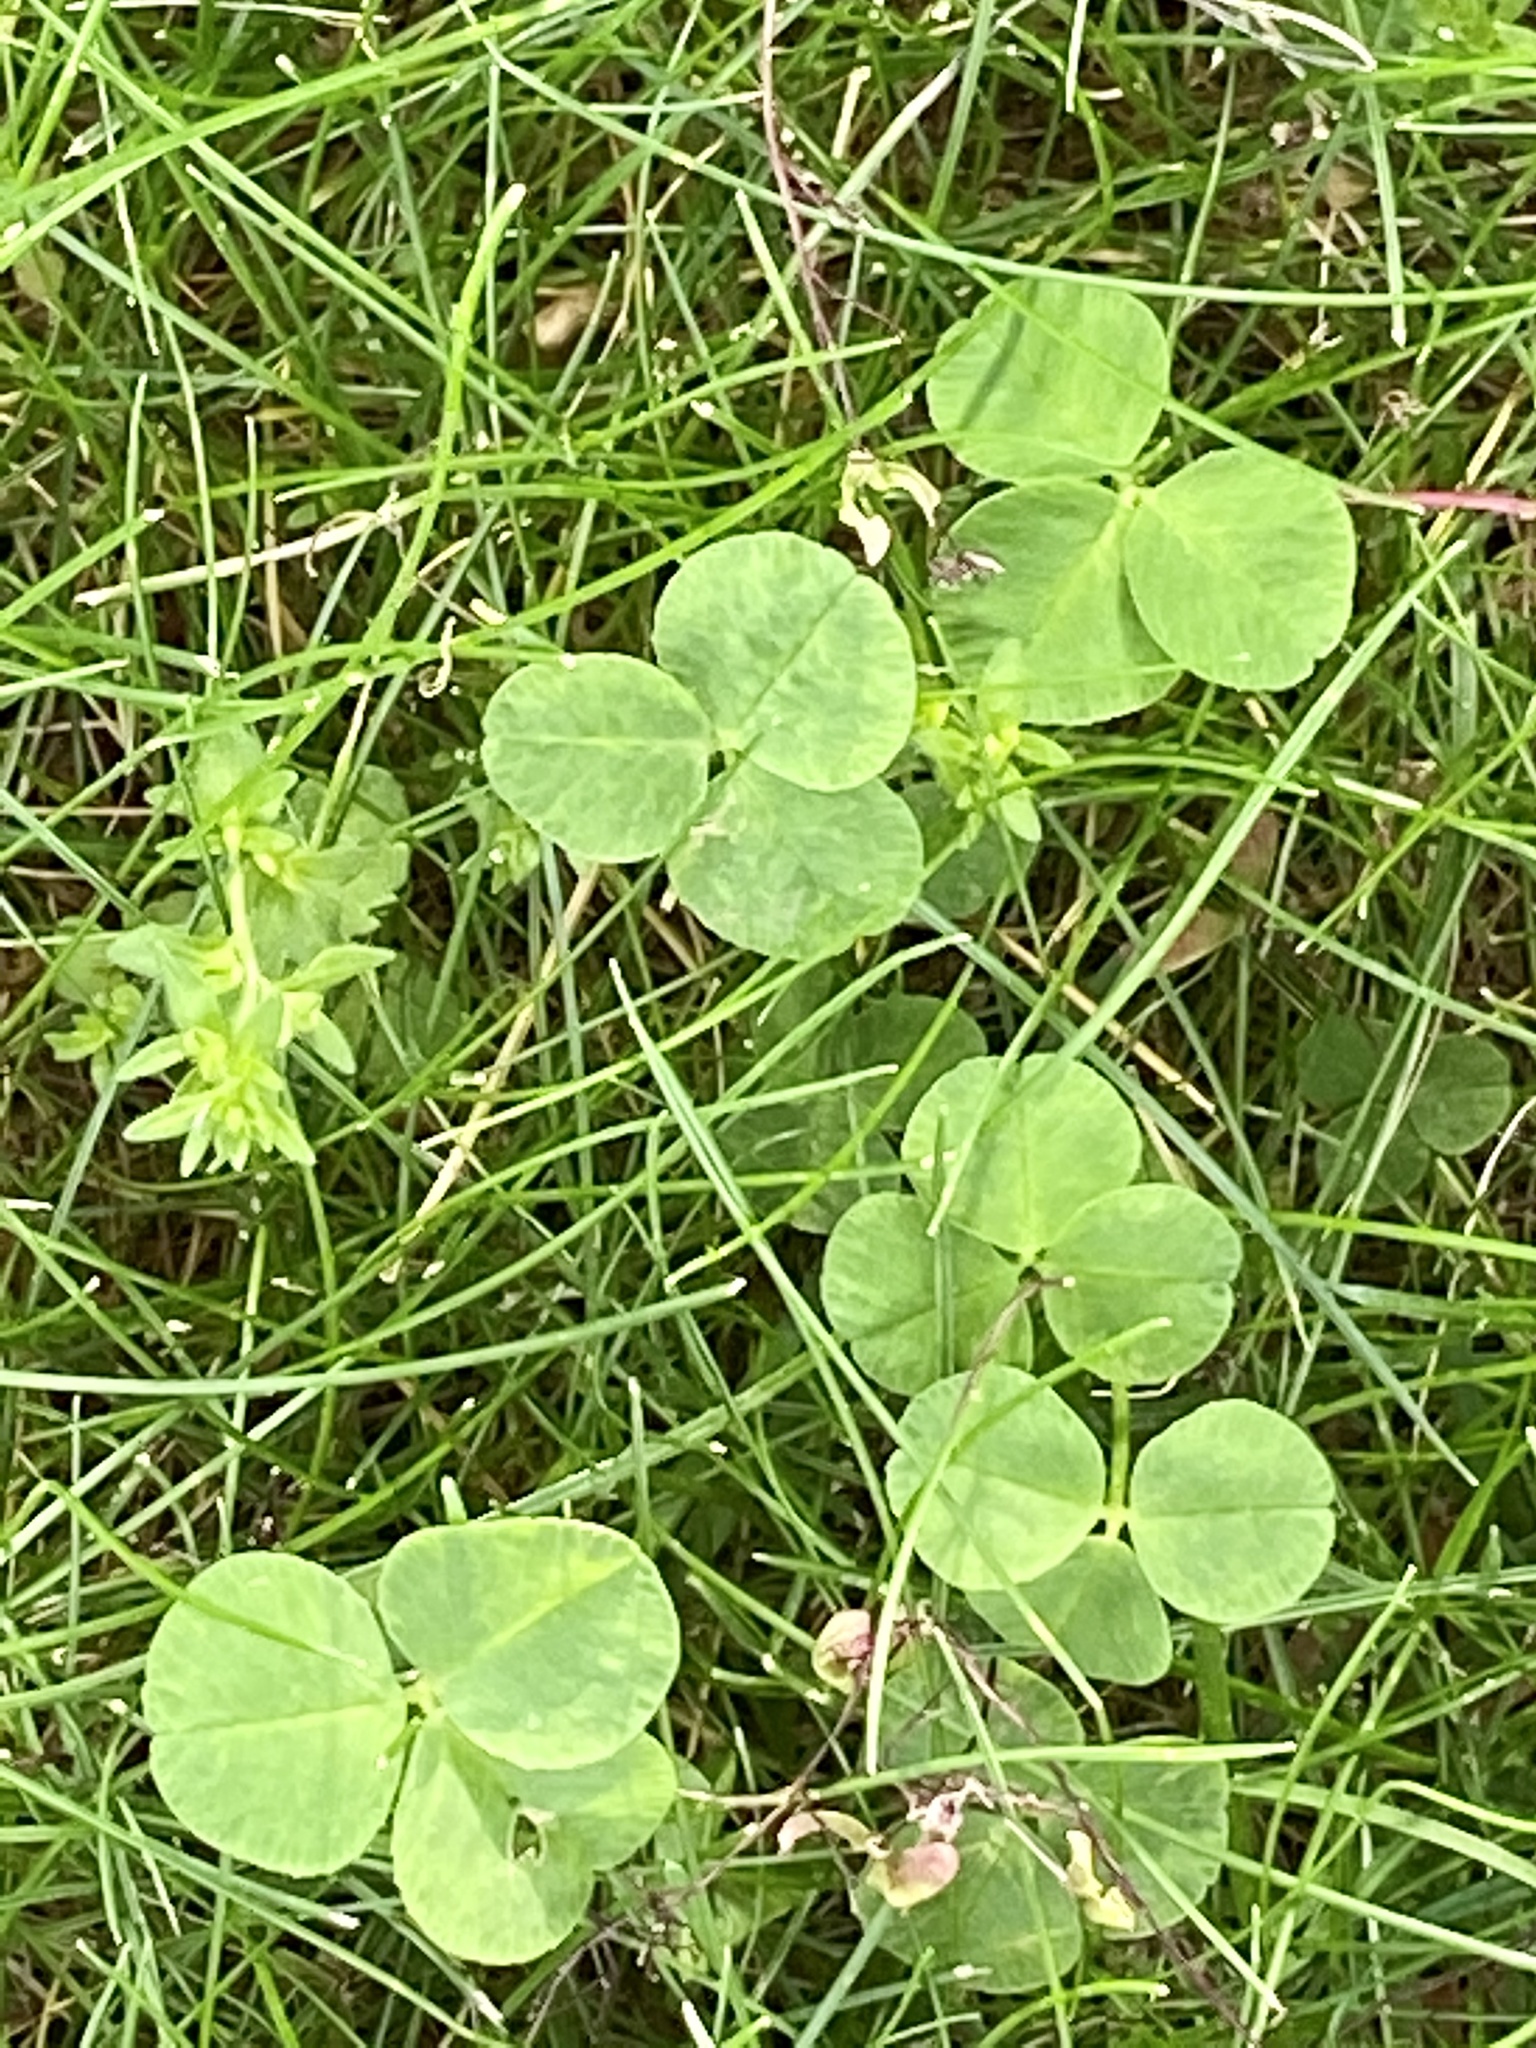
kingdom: Plantae
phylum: Tracheophyta
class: Magnoliopsida
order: Fabales
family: Fabaceae
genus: Trifolium
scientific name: Trifolium repens
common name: White clover
